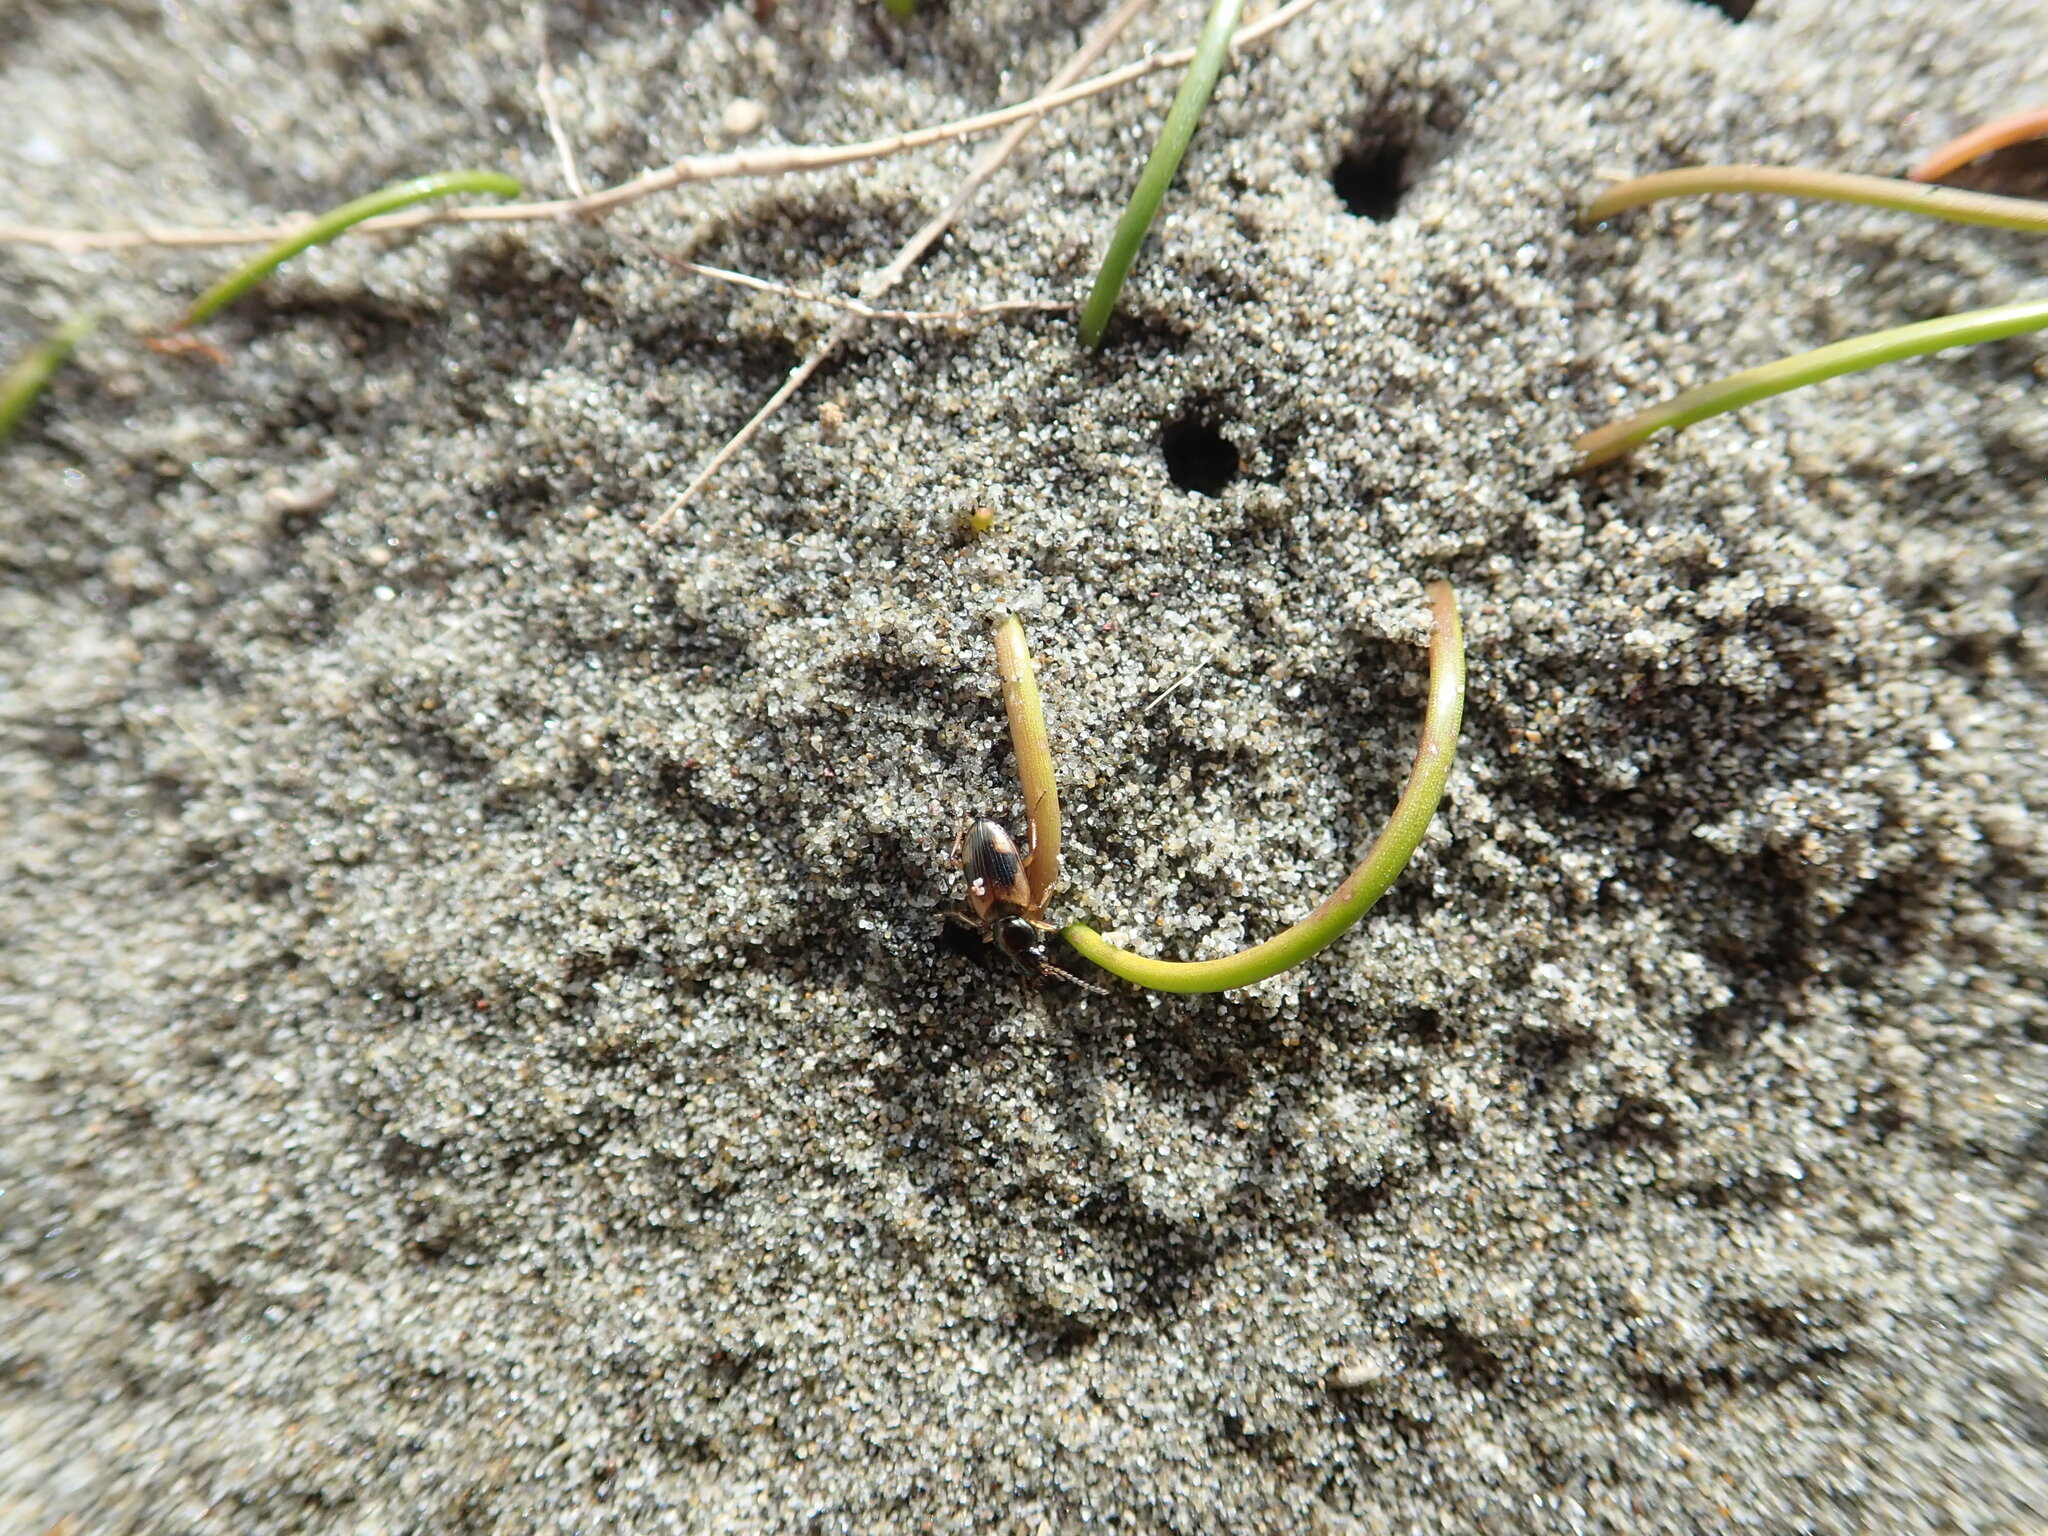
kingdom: Animalia
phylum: Arthropoda
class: Insecta
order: Coleoptera
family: Carabidae
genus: Bembidion
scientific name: Bembidion callipeplum
